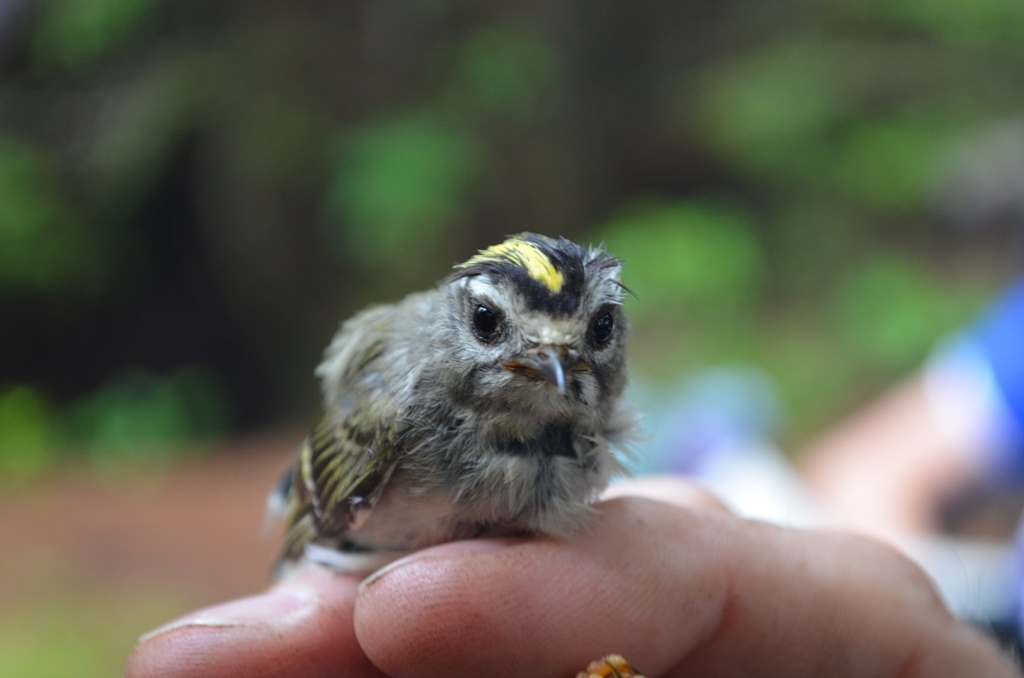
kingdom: Animalia
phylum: Chordata
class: Aves
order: Passeriformes
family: Regulidae
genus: Regulus
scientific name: Regulus satrapa
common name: Golden-crowned kinglet
